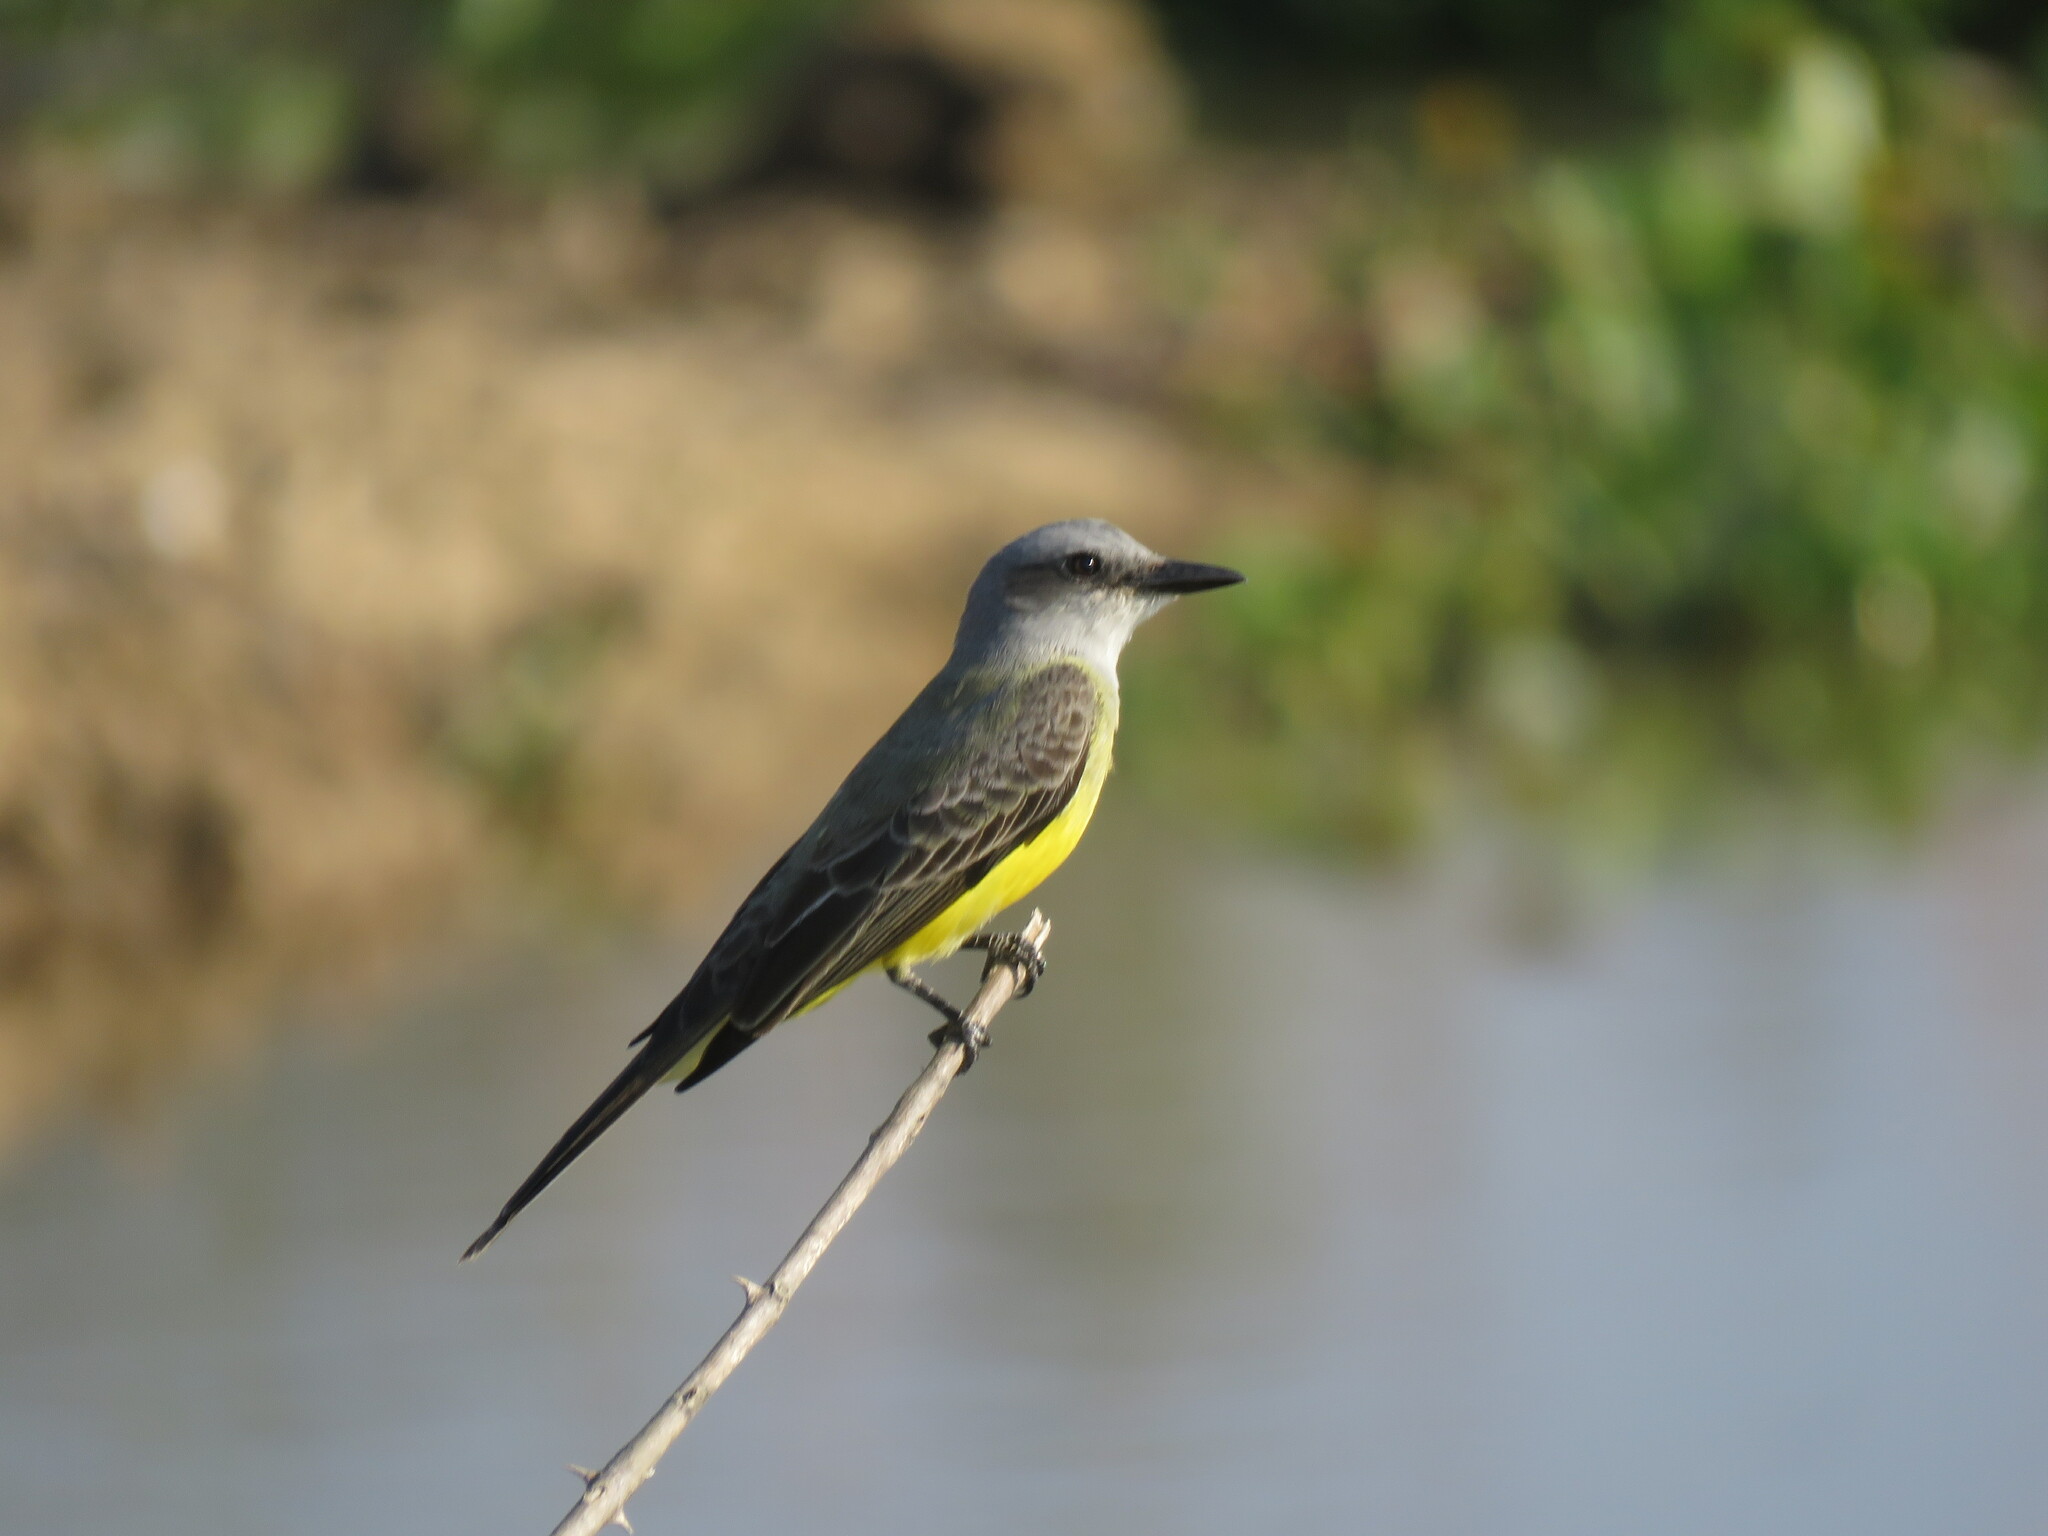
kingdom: Animalia
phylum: Chordata
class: Aves
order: Passeriformes
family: Tyrannidae
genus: Tyrannus
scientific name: Tyrannus melancholicus
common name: Tropical kingbird
